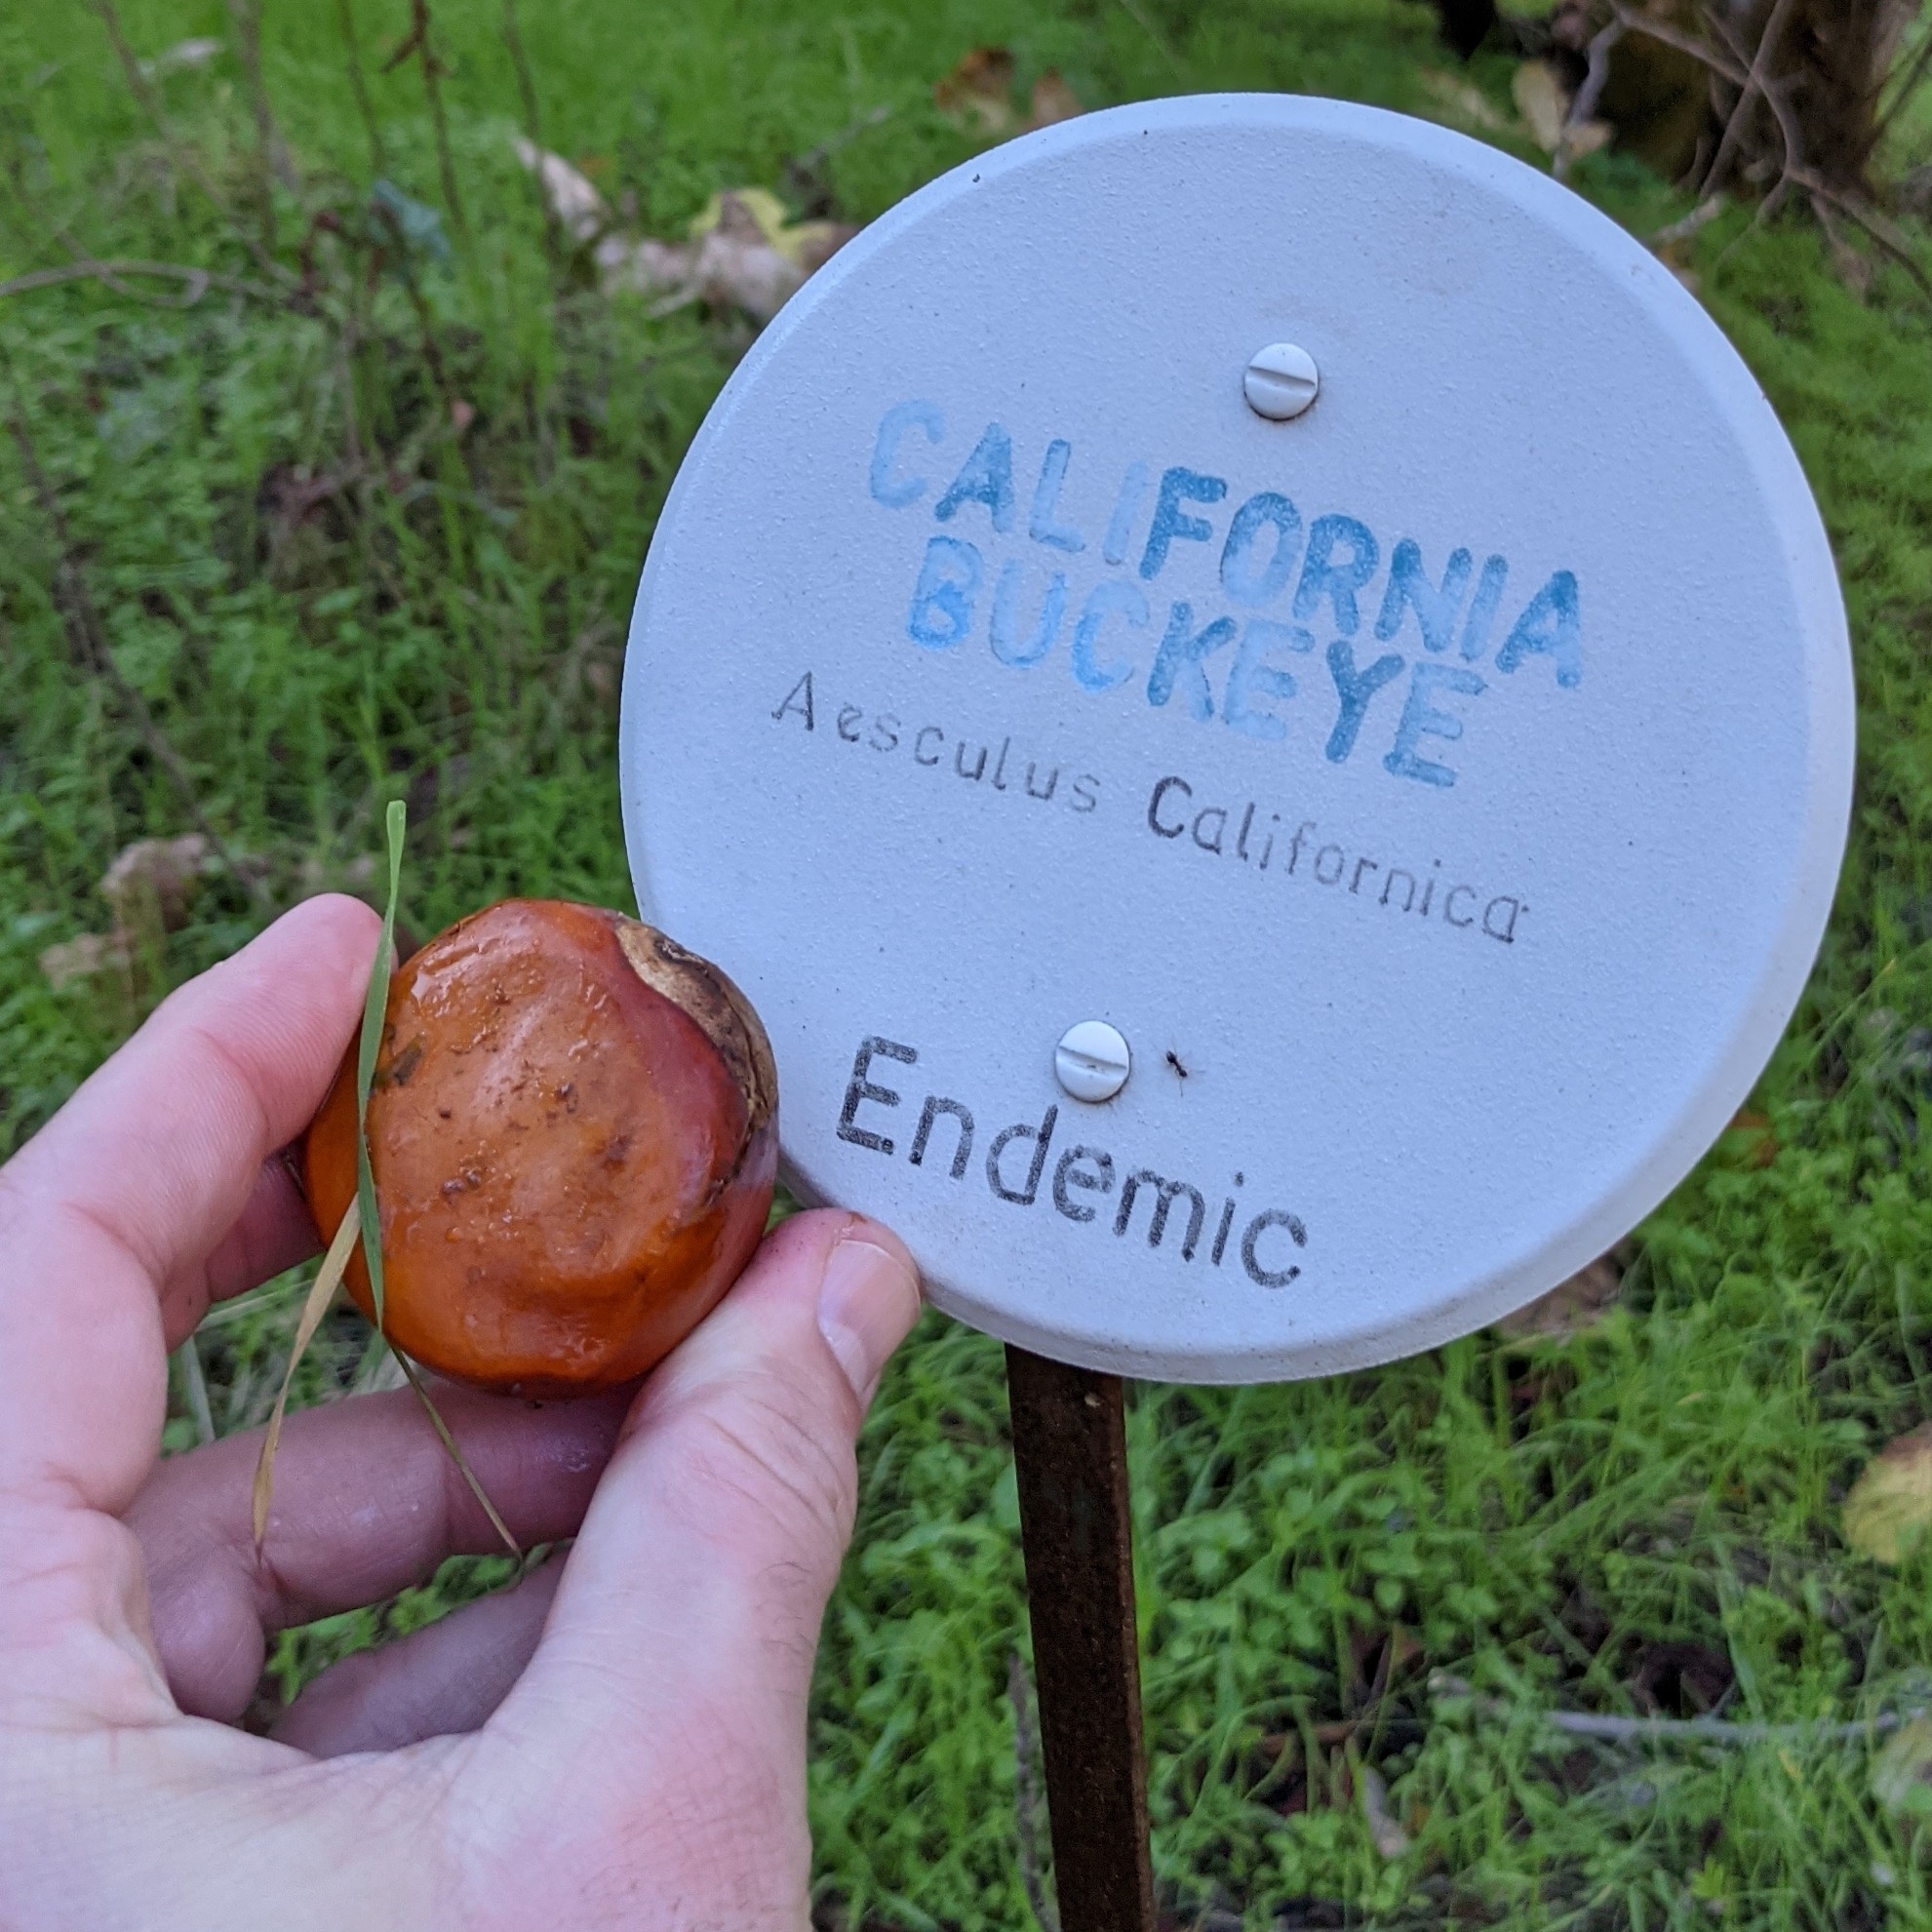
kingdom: Plantae
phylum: Tracheophyta
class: Magnoliopsida
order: Sapindales
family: Sapindaceae
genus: Aesculus
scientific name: Aesculus californica
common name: California buckeye
